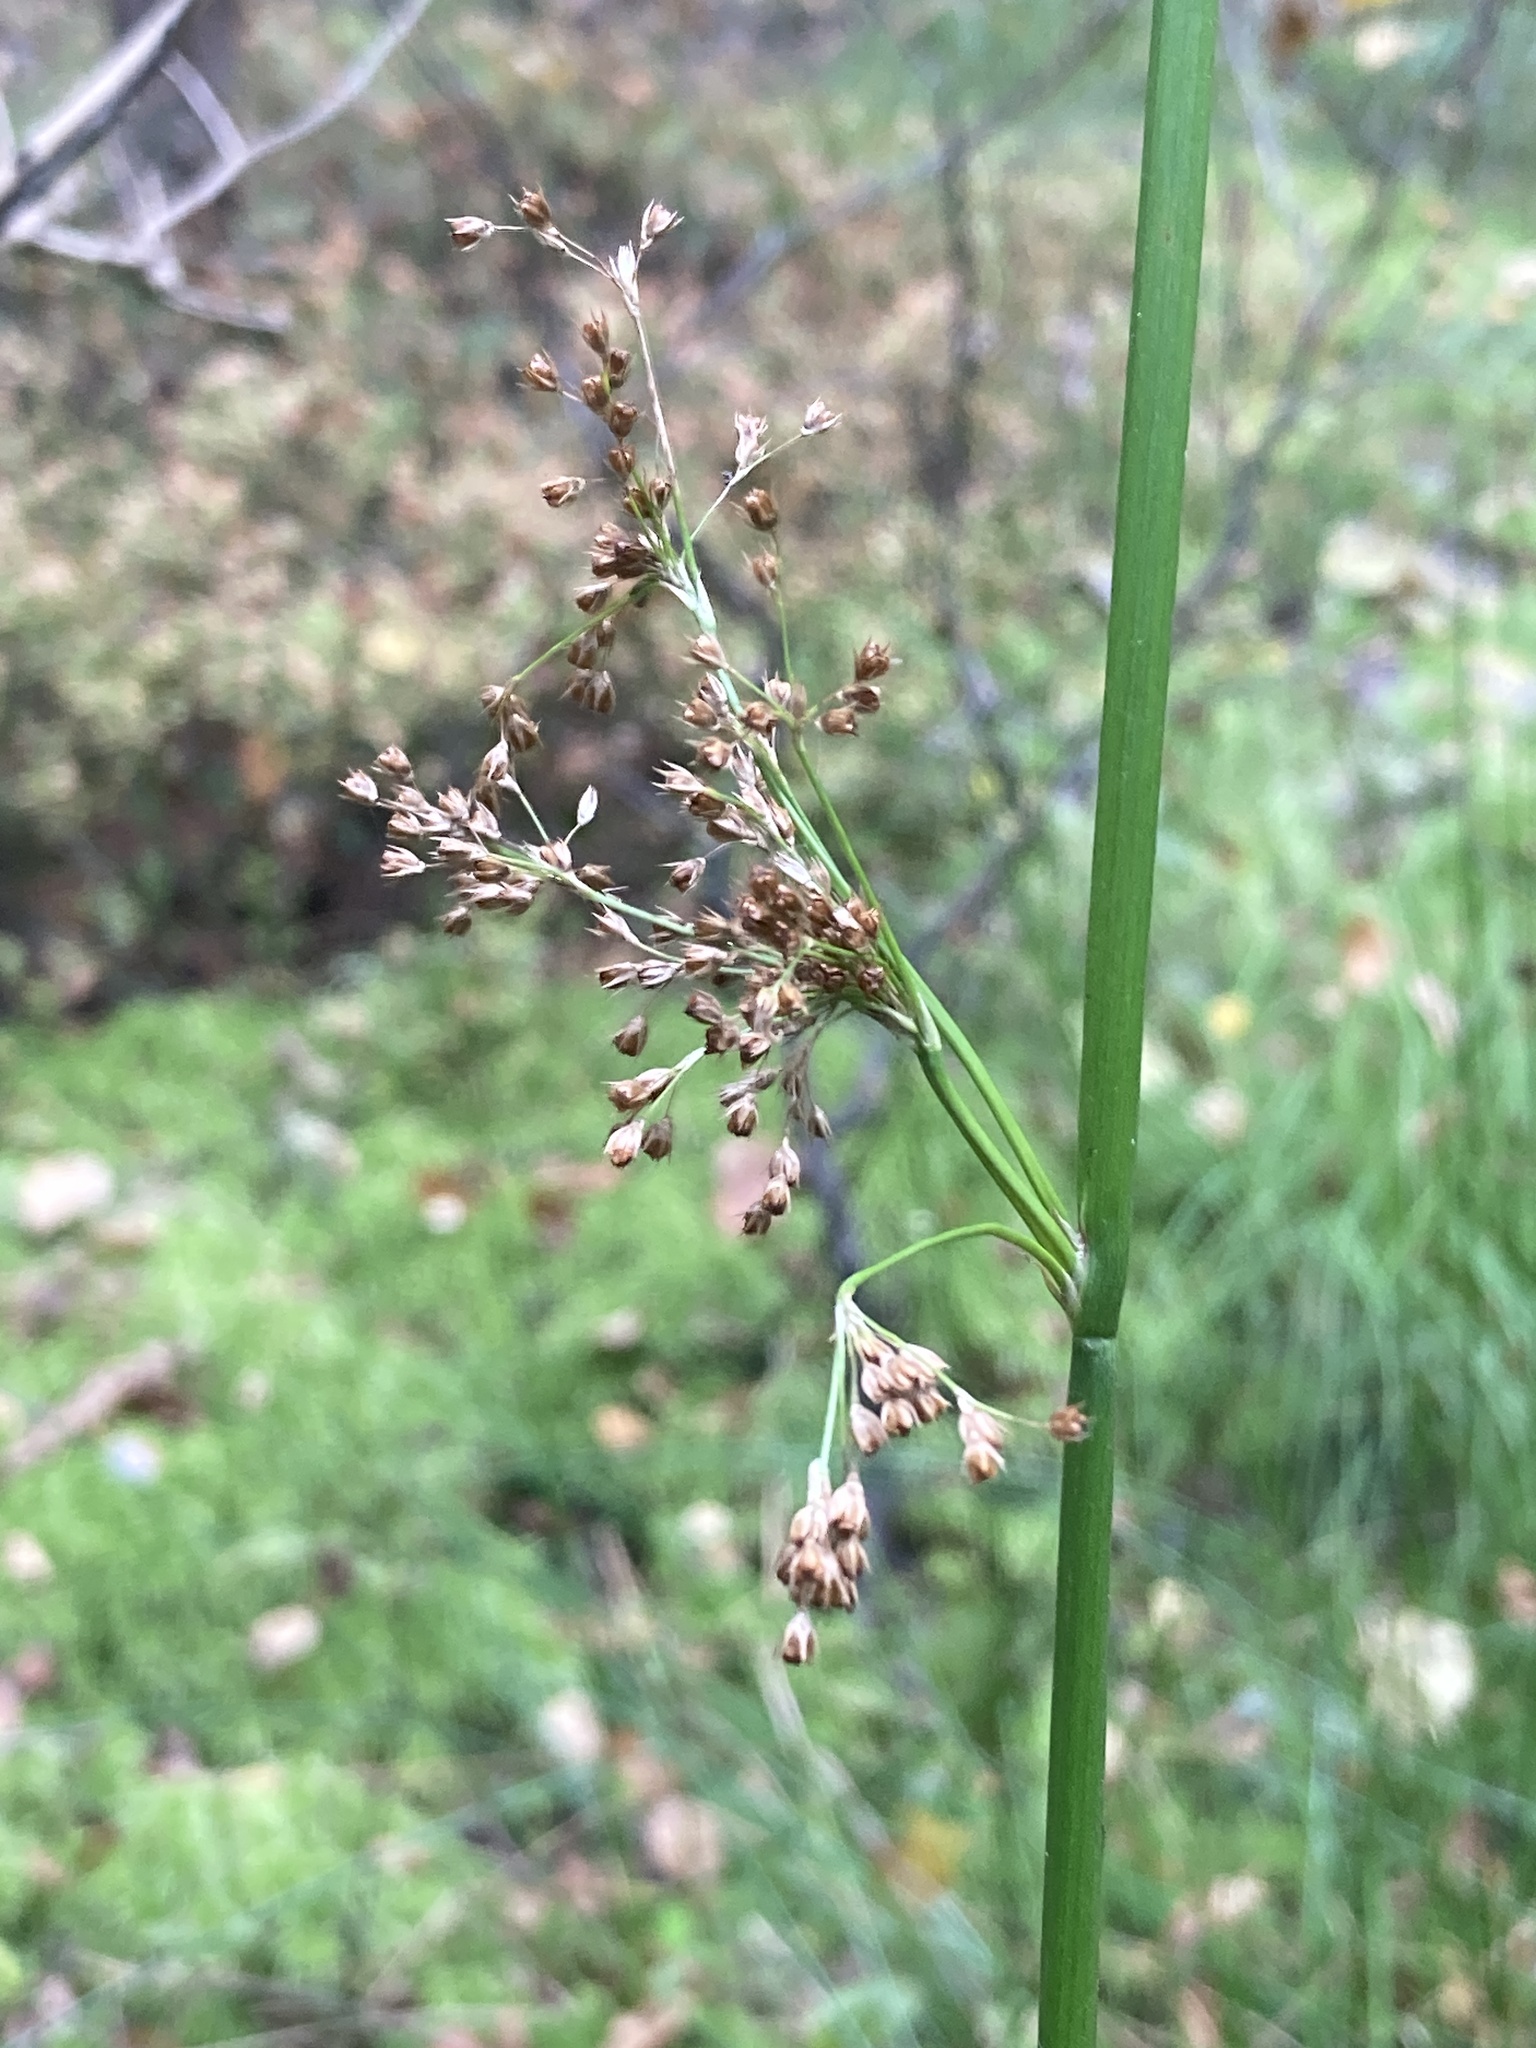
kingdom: Plantae
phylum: Tracheophyta
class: Liliopsida
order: Poales
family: Juncaceae
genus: Juncus
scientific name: Juncus effusus
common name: Soft rush
